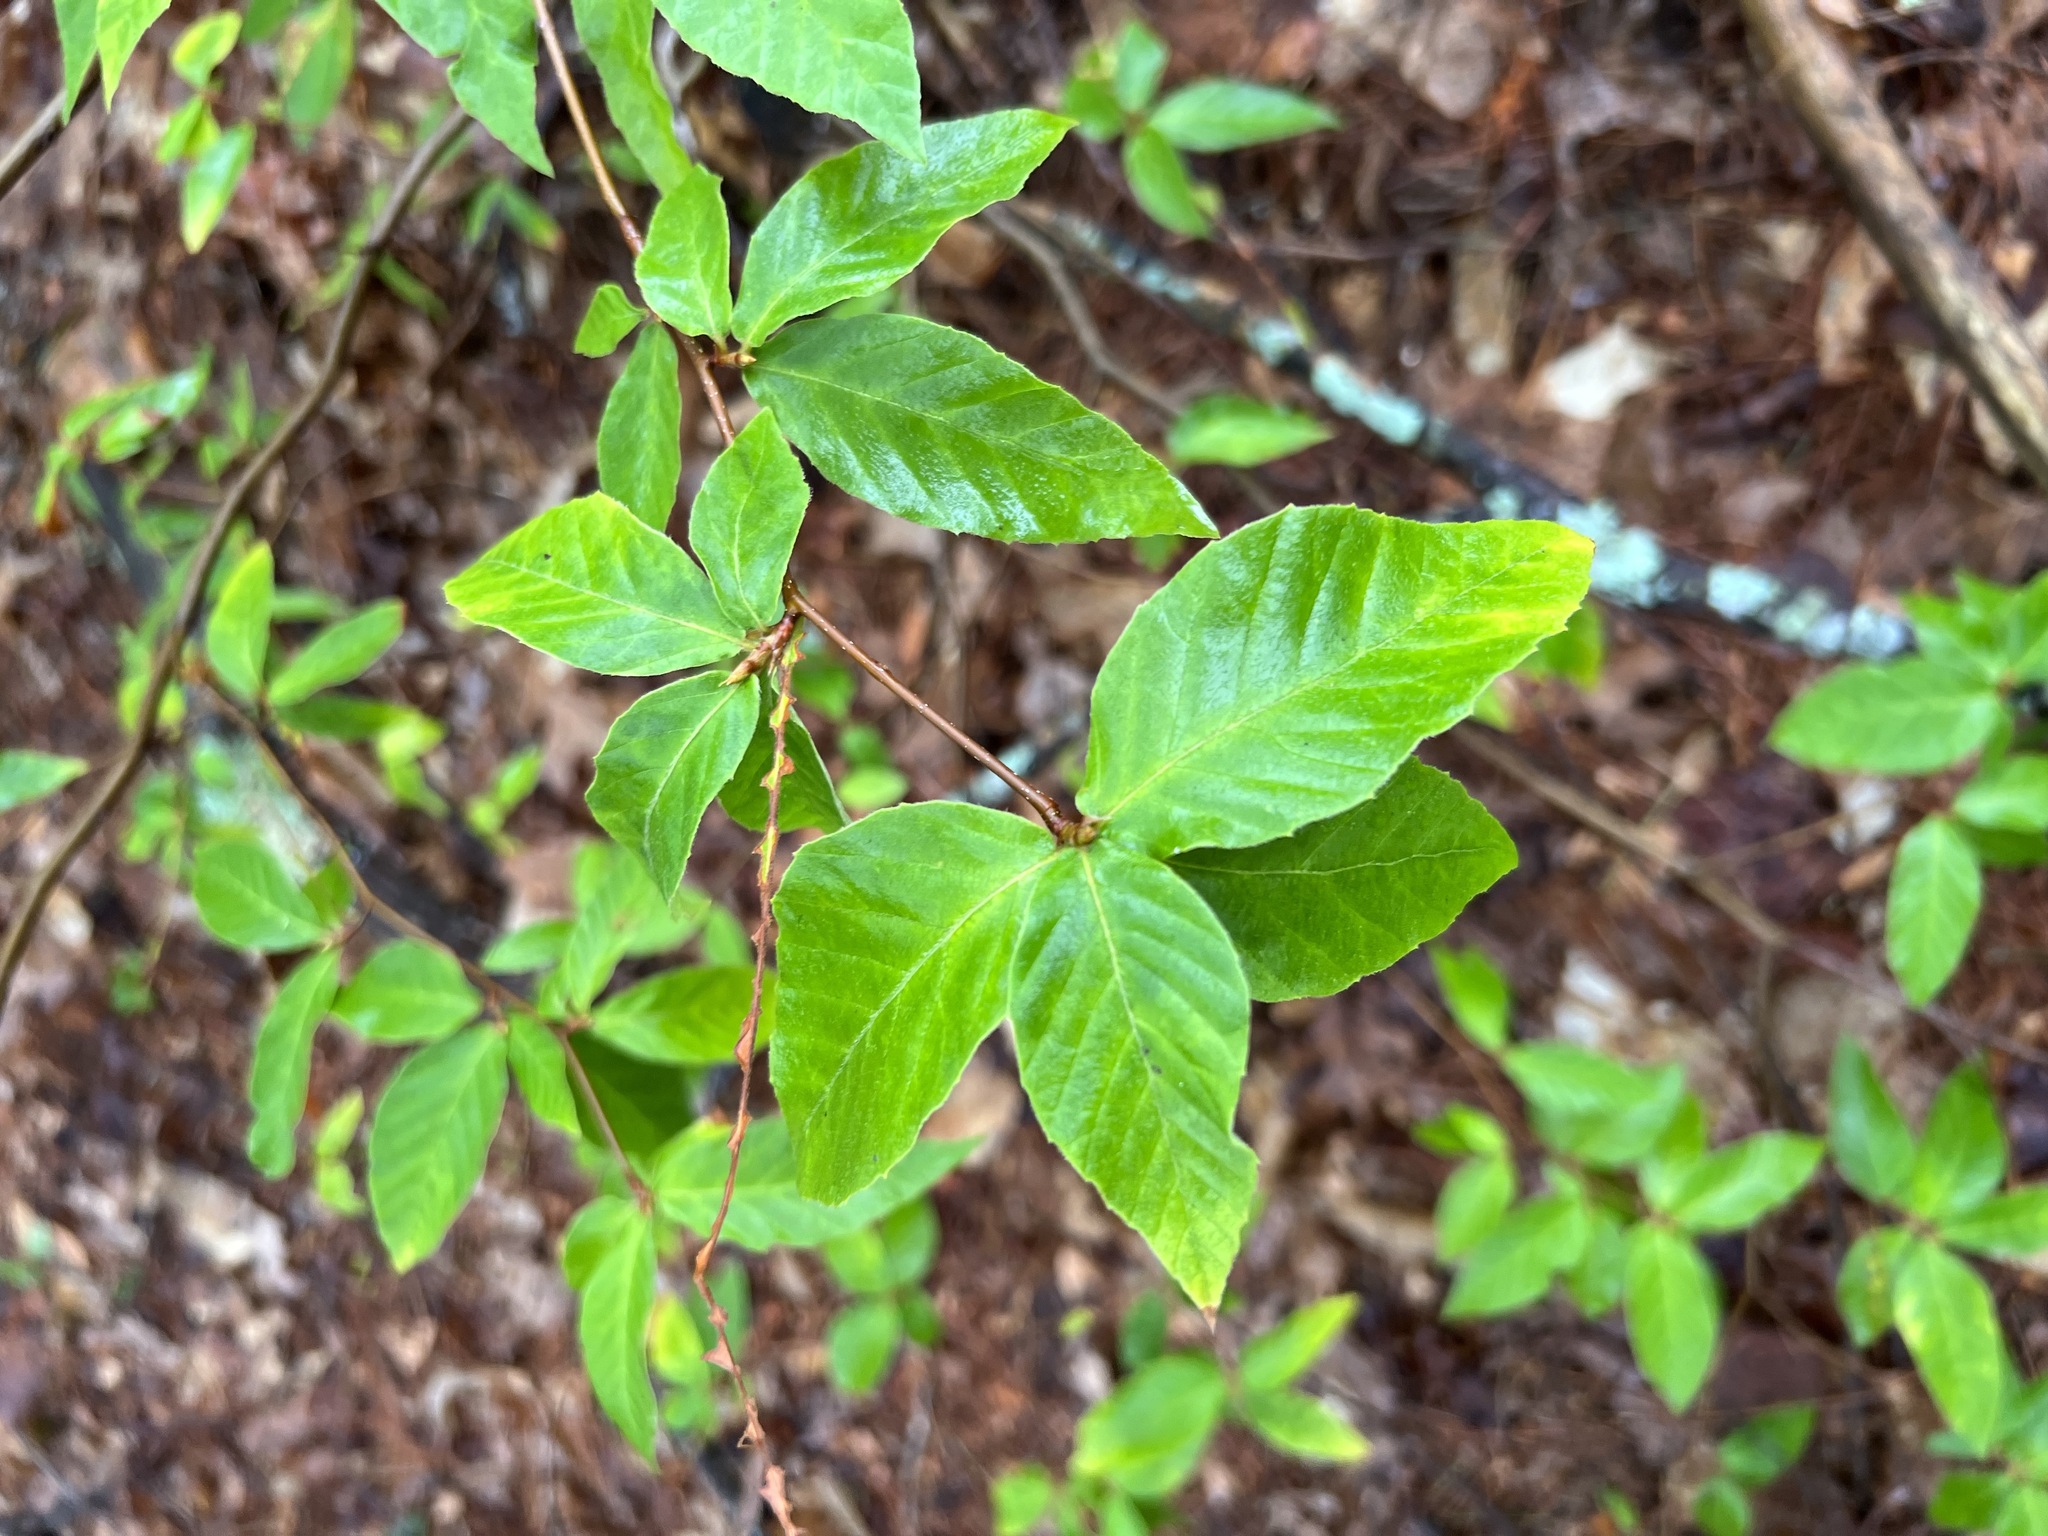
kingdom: Plantae
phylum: Tracheophyta
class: Magnoliopsida
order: Fagales
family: Fagaceae
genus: Fagus
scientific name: Fagus grandifolia
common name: American beech
